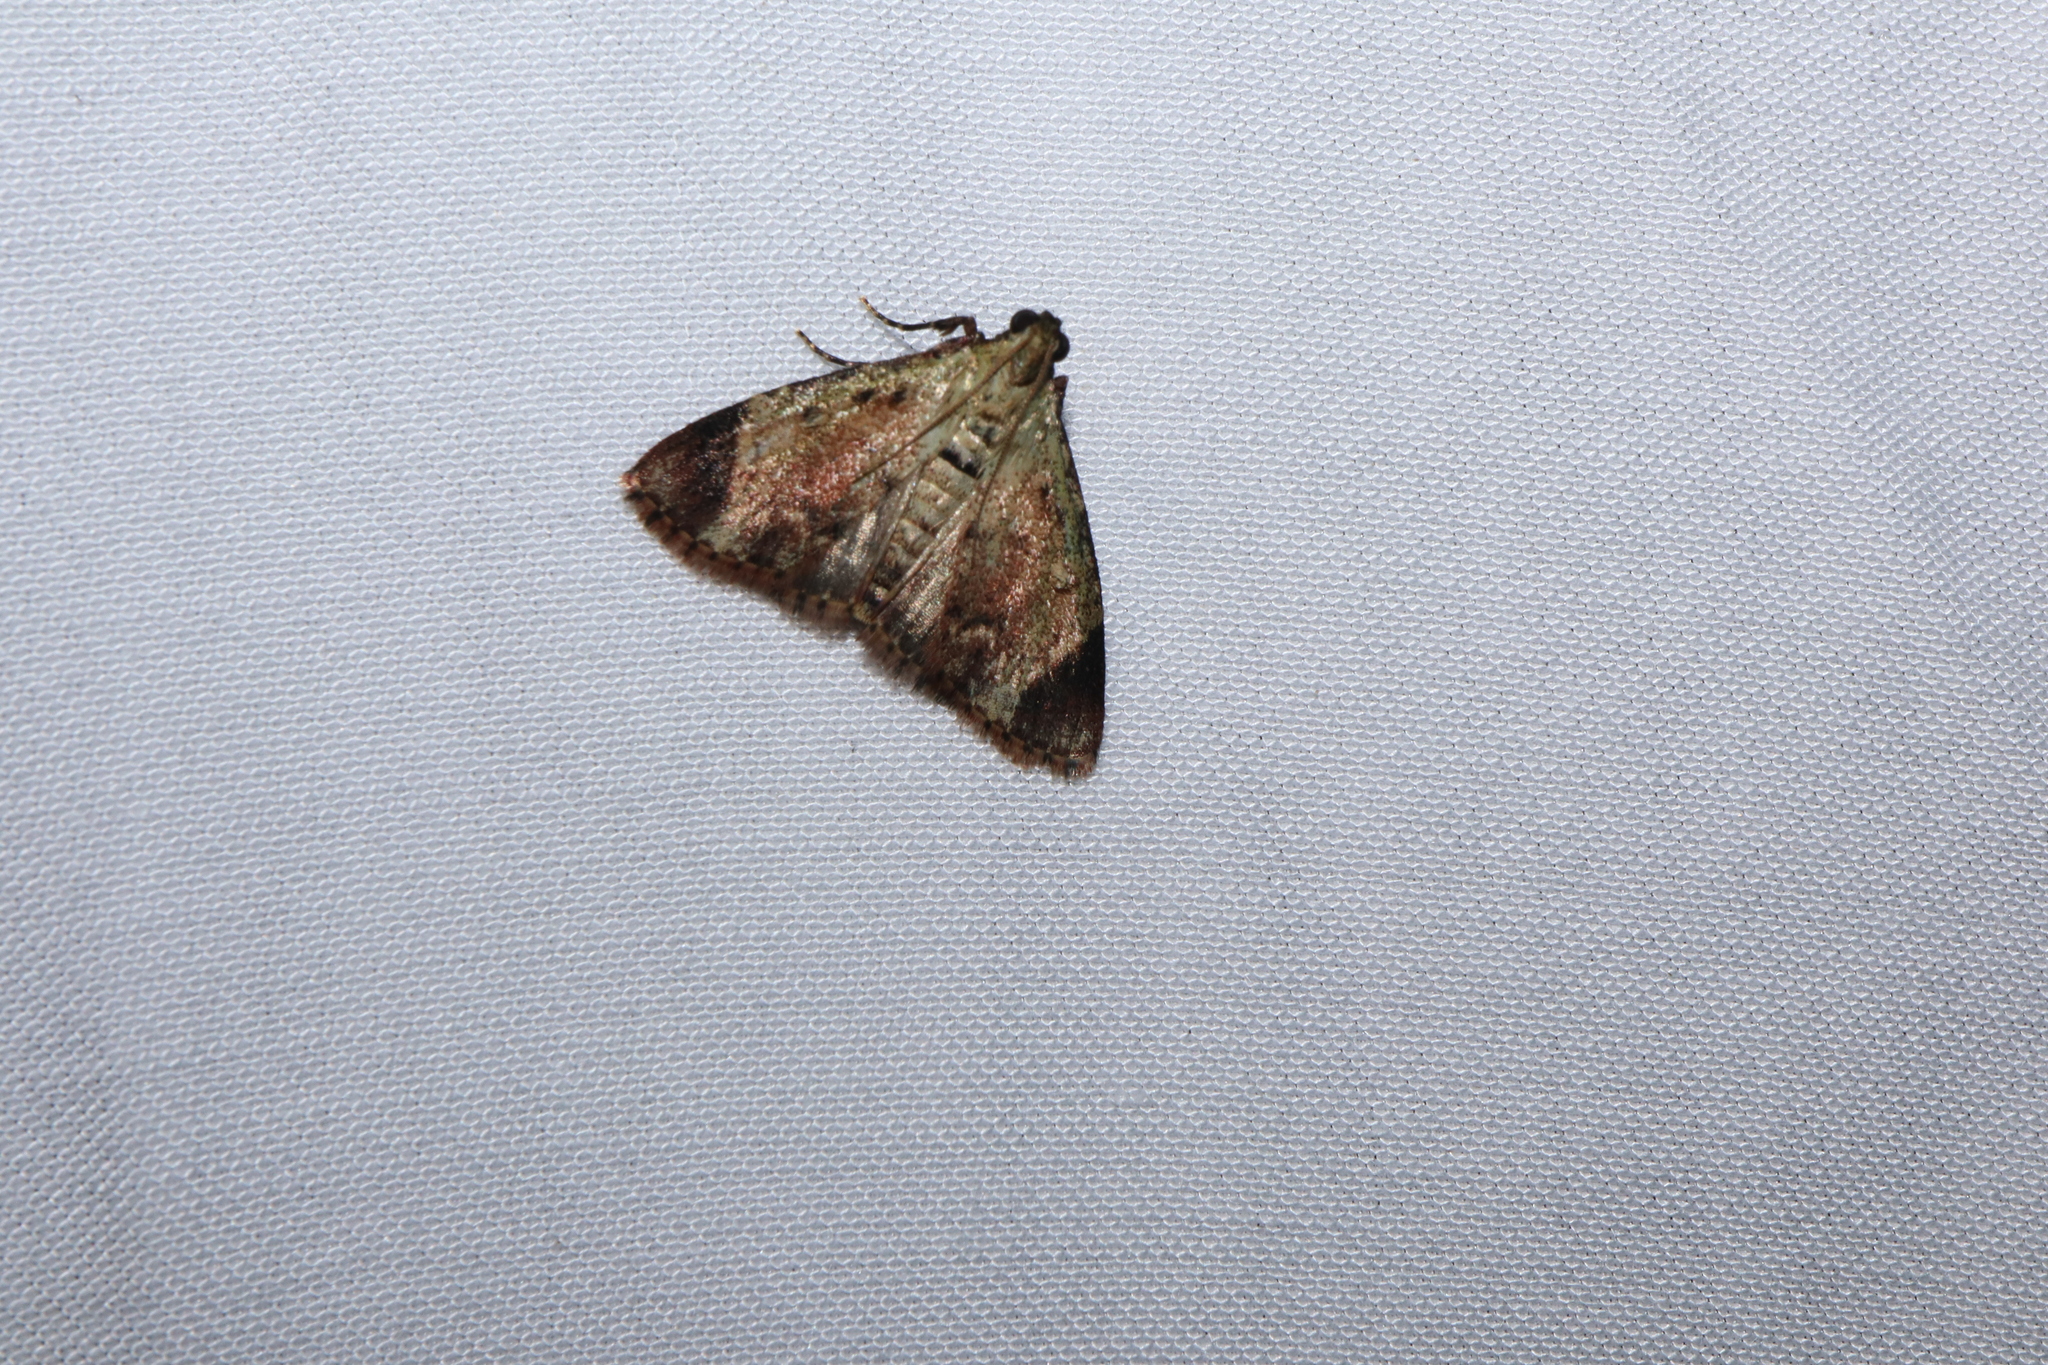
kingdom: Animalia
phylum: Arthropoda
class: Insecta
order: Lepidoptera
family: Pyralidae
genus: Orthaga
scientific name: Orthaga melanoperalis
